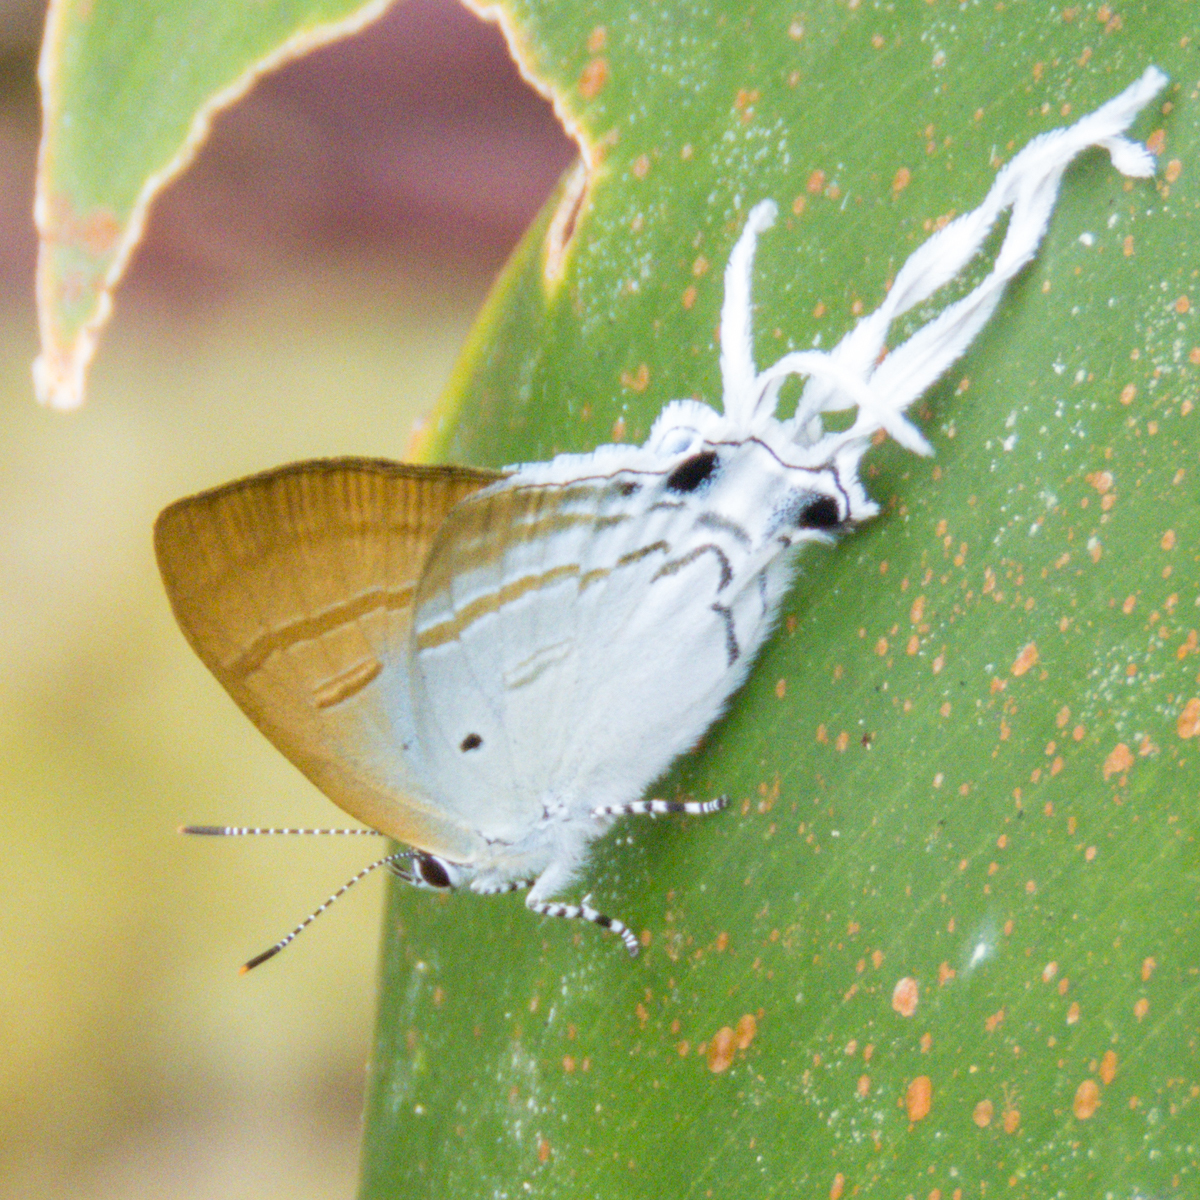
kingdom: Animalia
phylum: Arthropoda
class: Insecta
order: Lepidoptera
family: Lycaenidae
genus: Zeltus
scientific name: Zeltus amasa
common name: Fluffy tit
